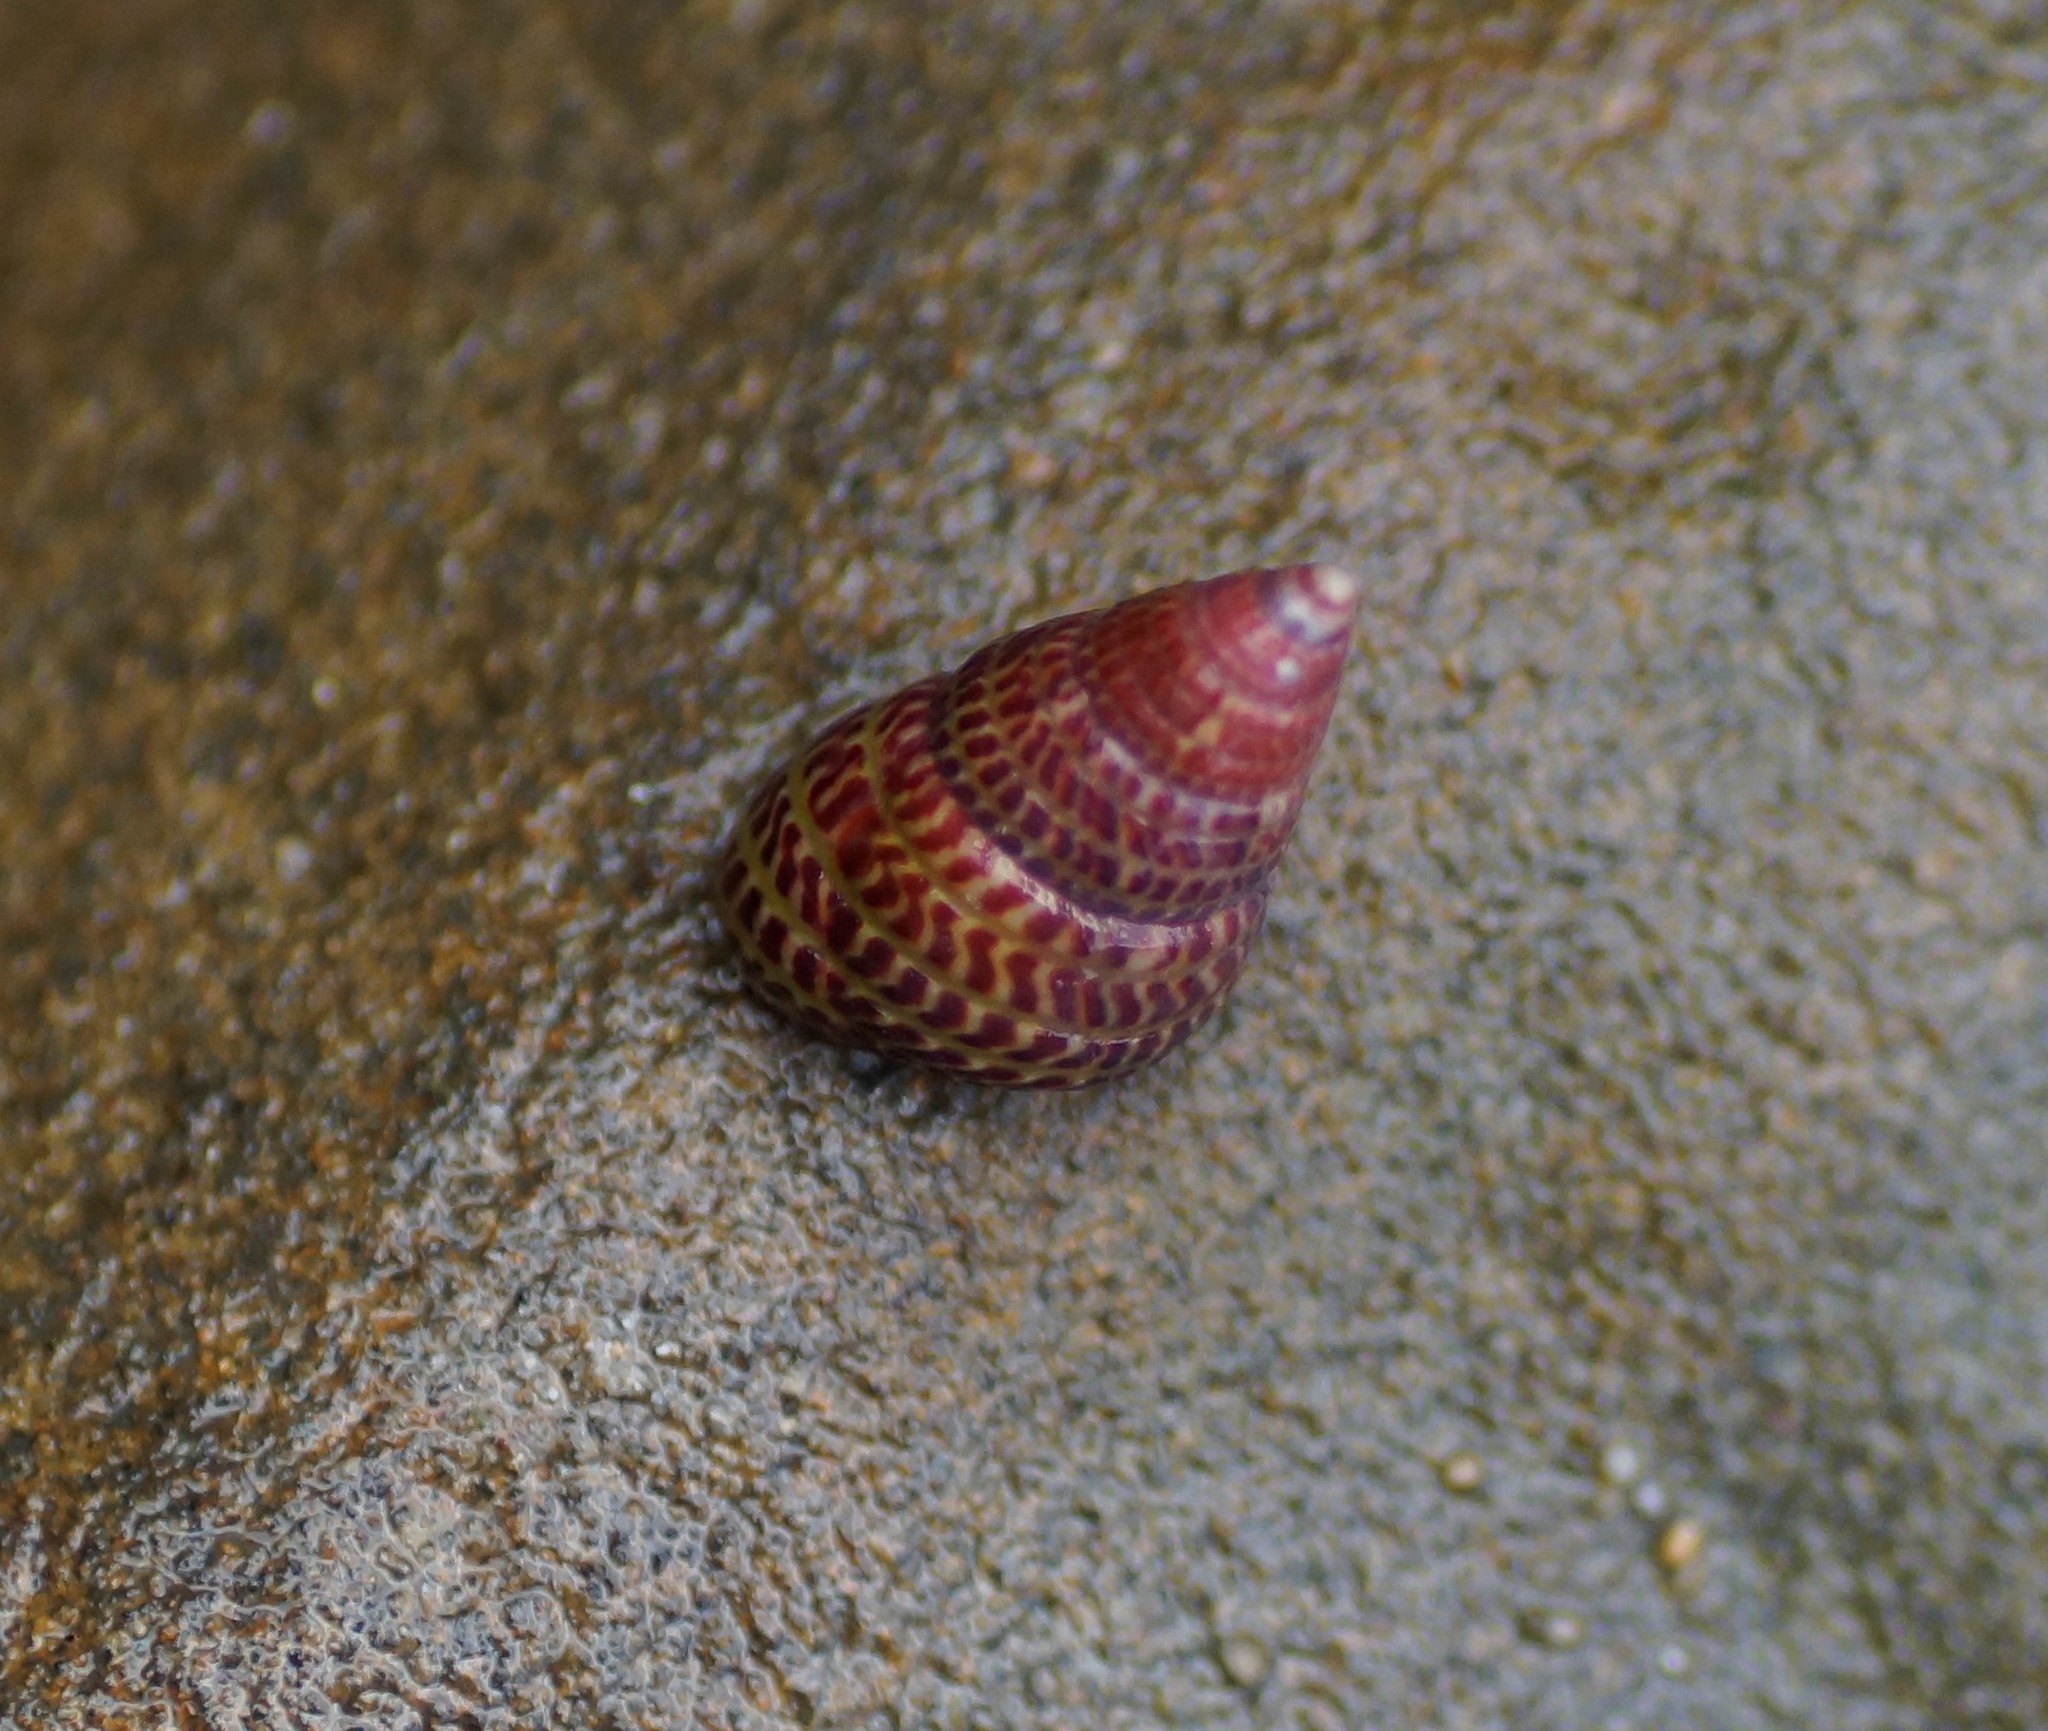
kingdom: Animalia
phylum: Mollusca
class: Gastropoda
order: Trochida
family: Trochidae
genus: Prothalotia
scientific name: Prothalotia pulcherrima
